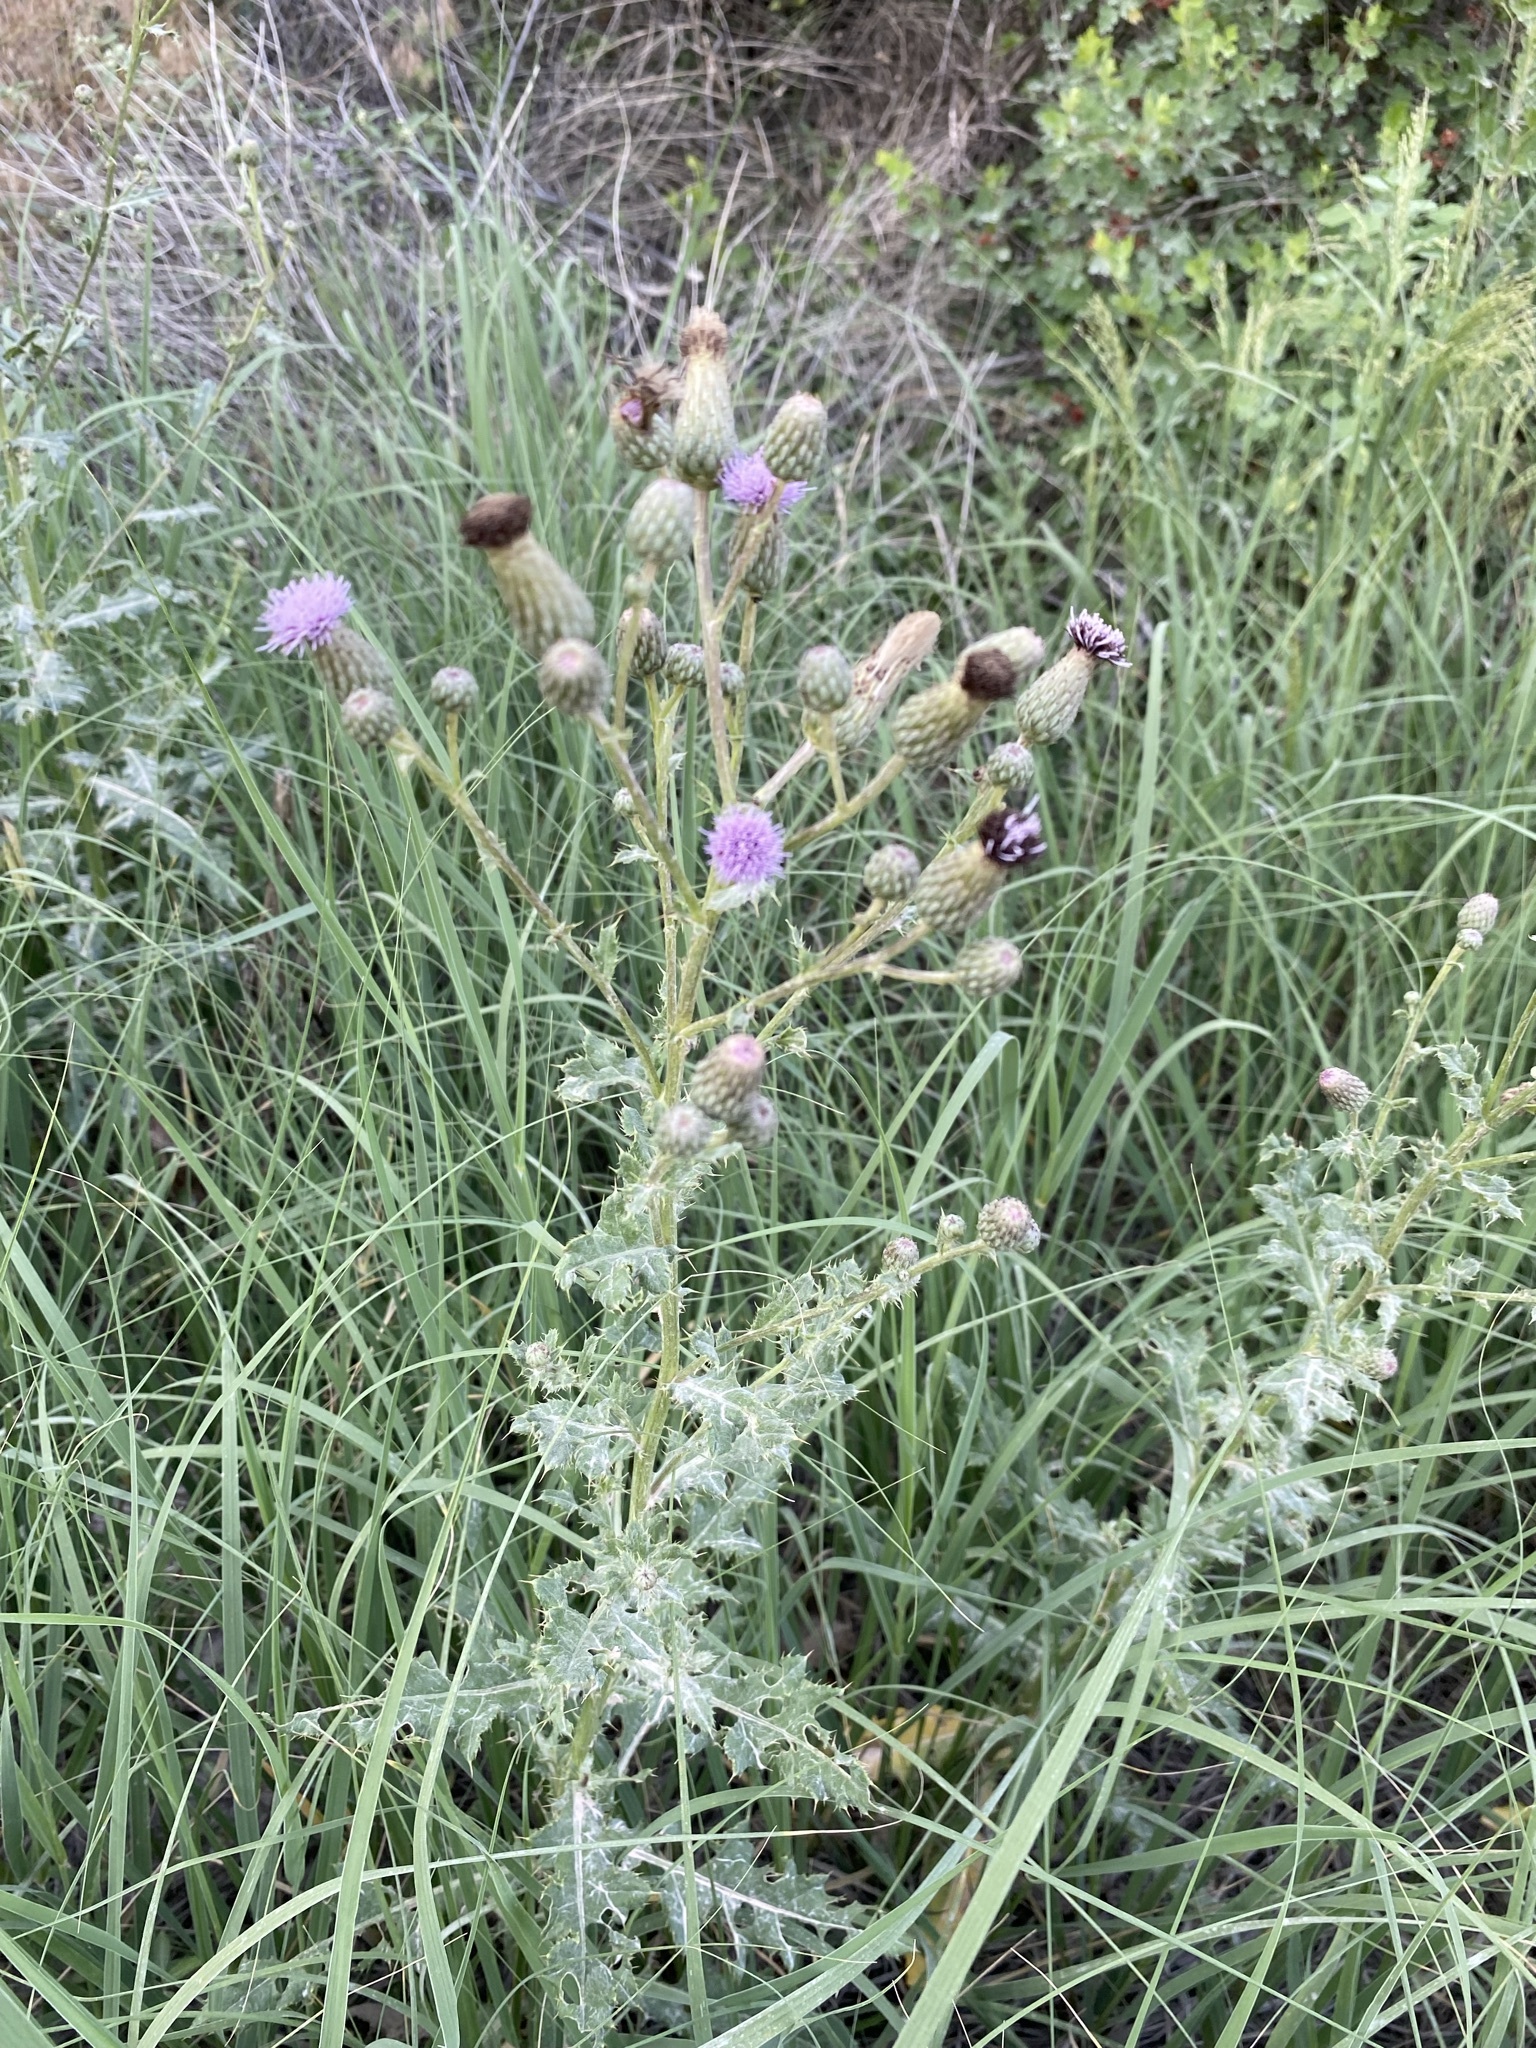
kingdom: Plantae
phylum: Tracheophyta
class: Magnoliopsida
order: Asterales
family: Asteraceae
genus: Cirsium
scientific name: Cirsium arvense
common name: Creeping thistle
